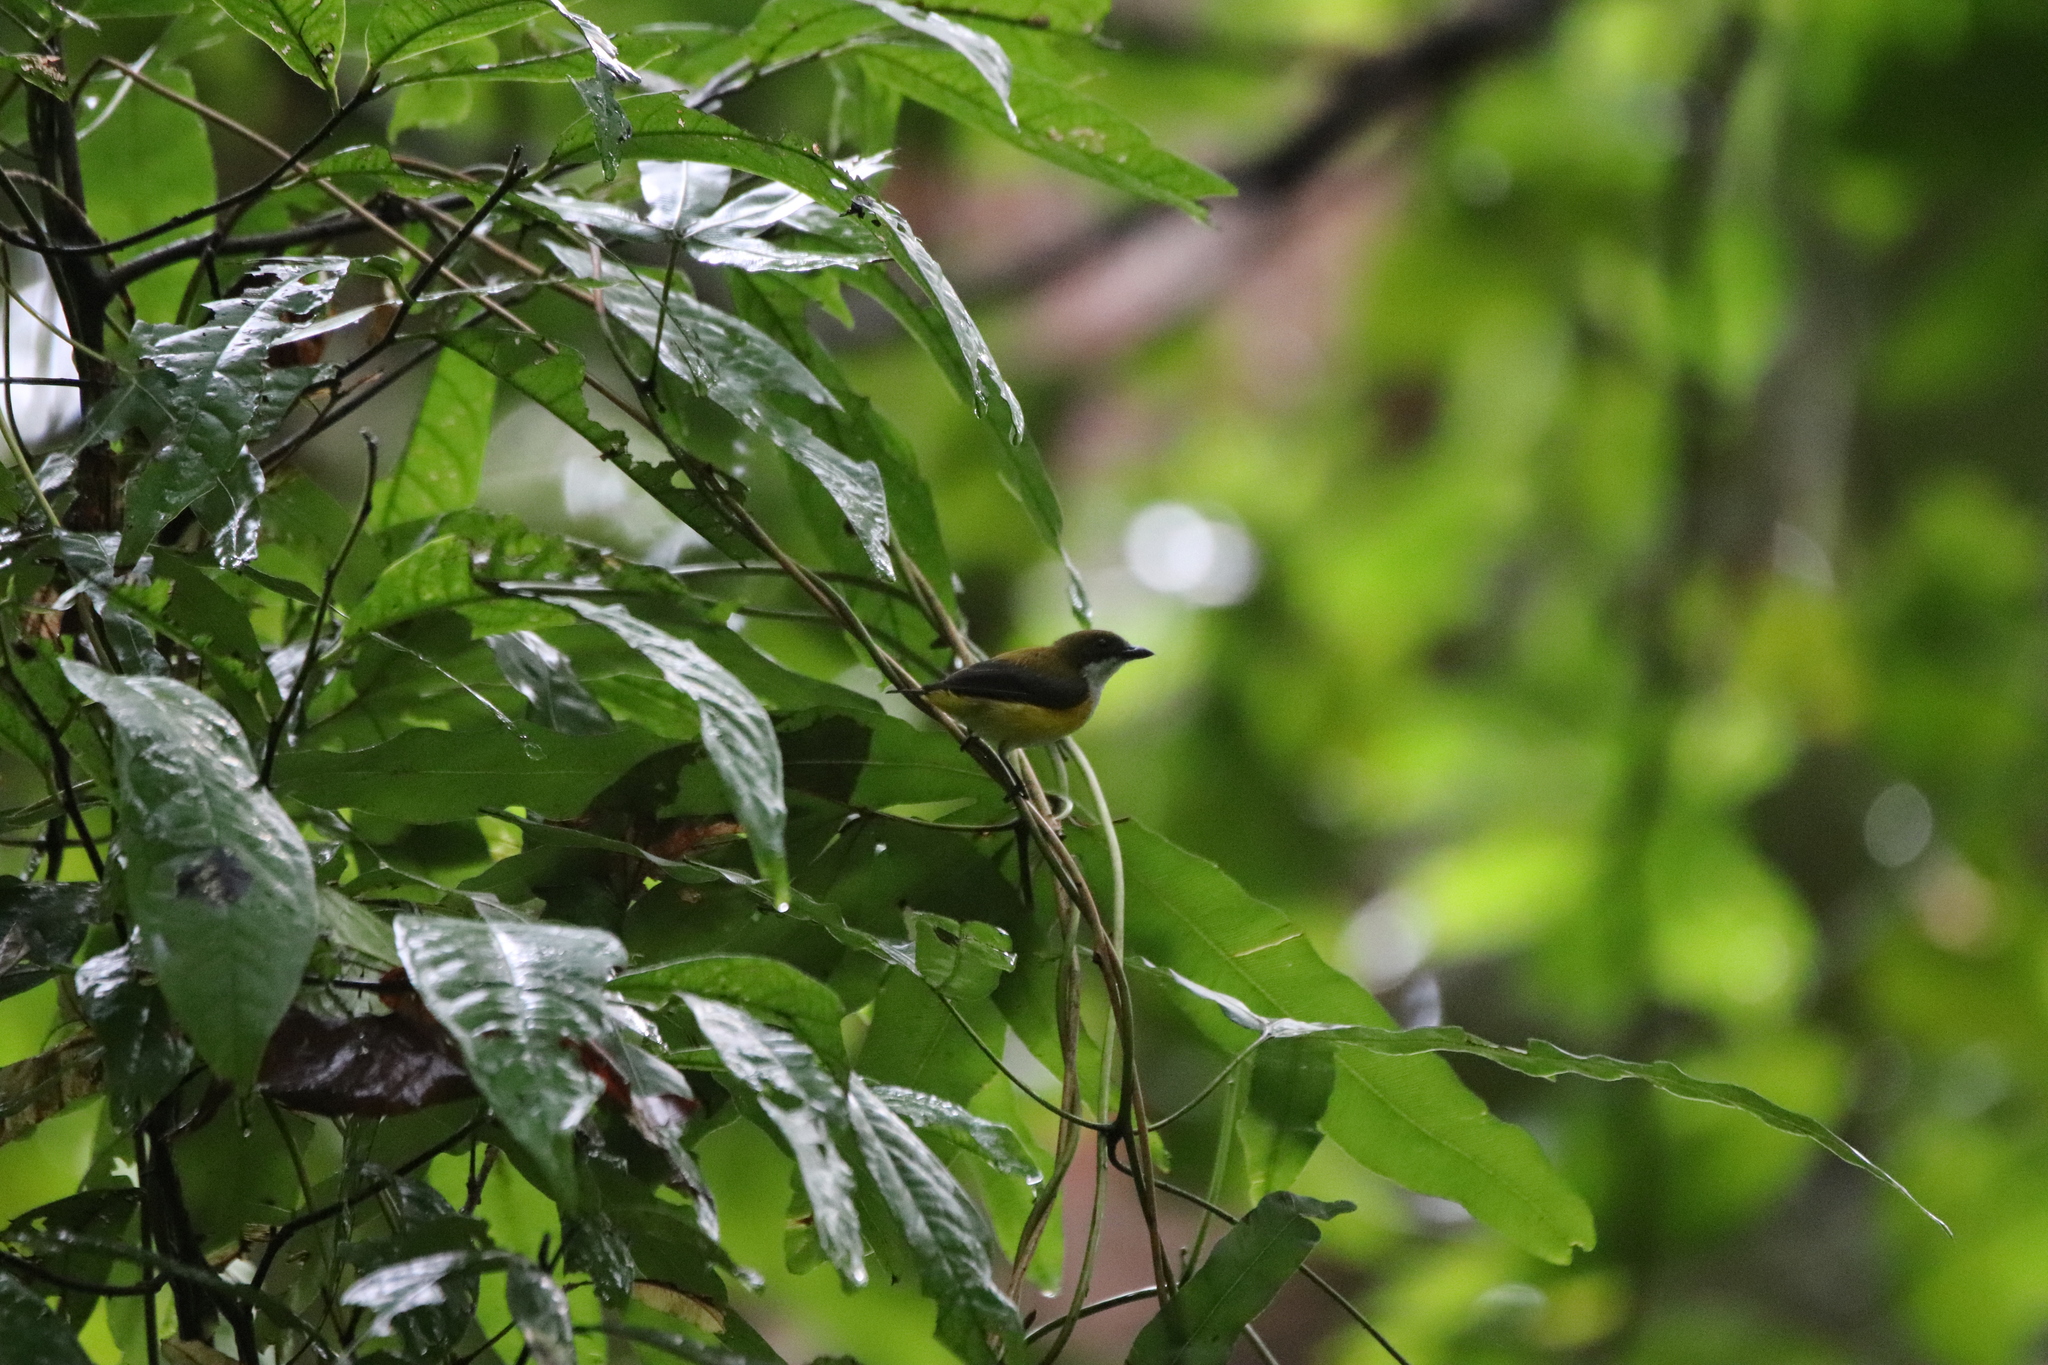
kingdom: Animalia
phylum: Chordata
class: Aves
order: Passeriformes
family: Dicaeidae
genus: Dicaeum
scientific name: Dicaeum aureolimbatum
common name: Yellow-sided flowerpecker
